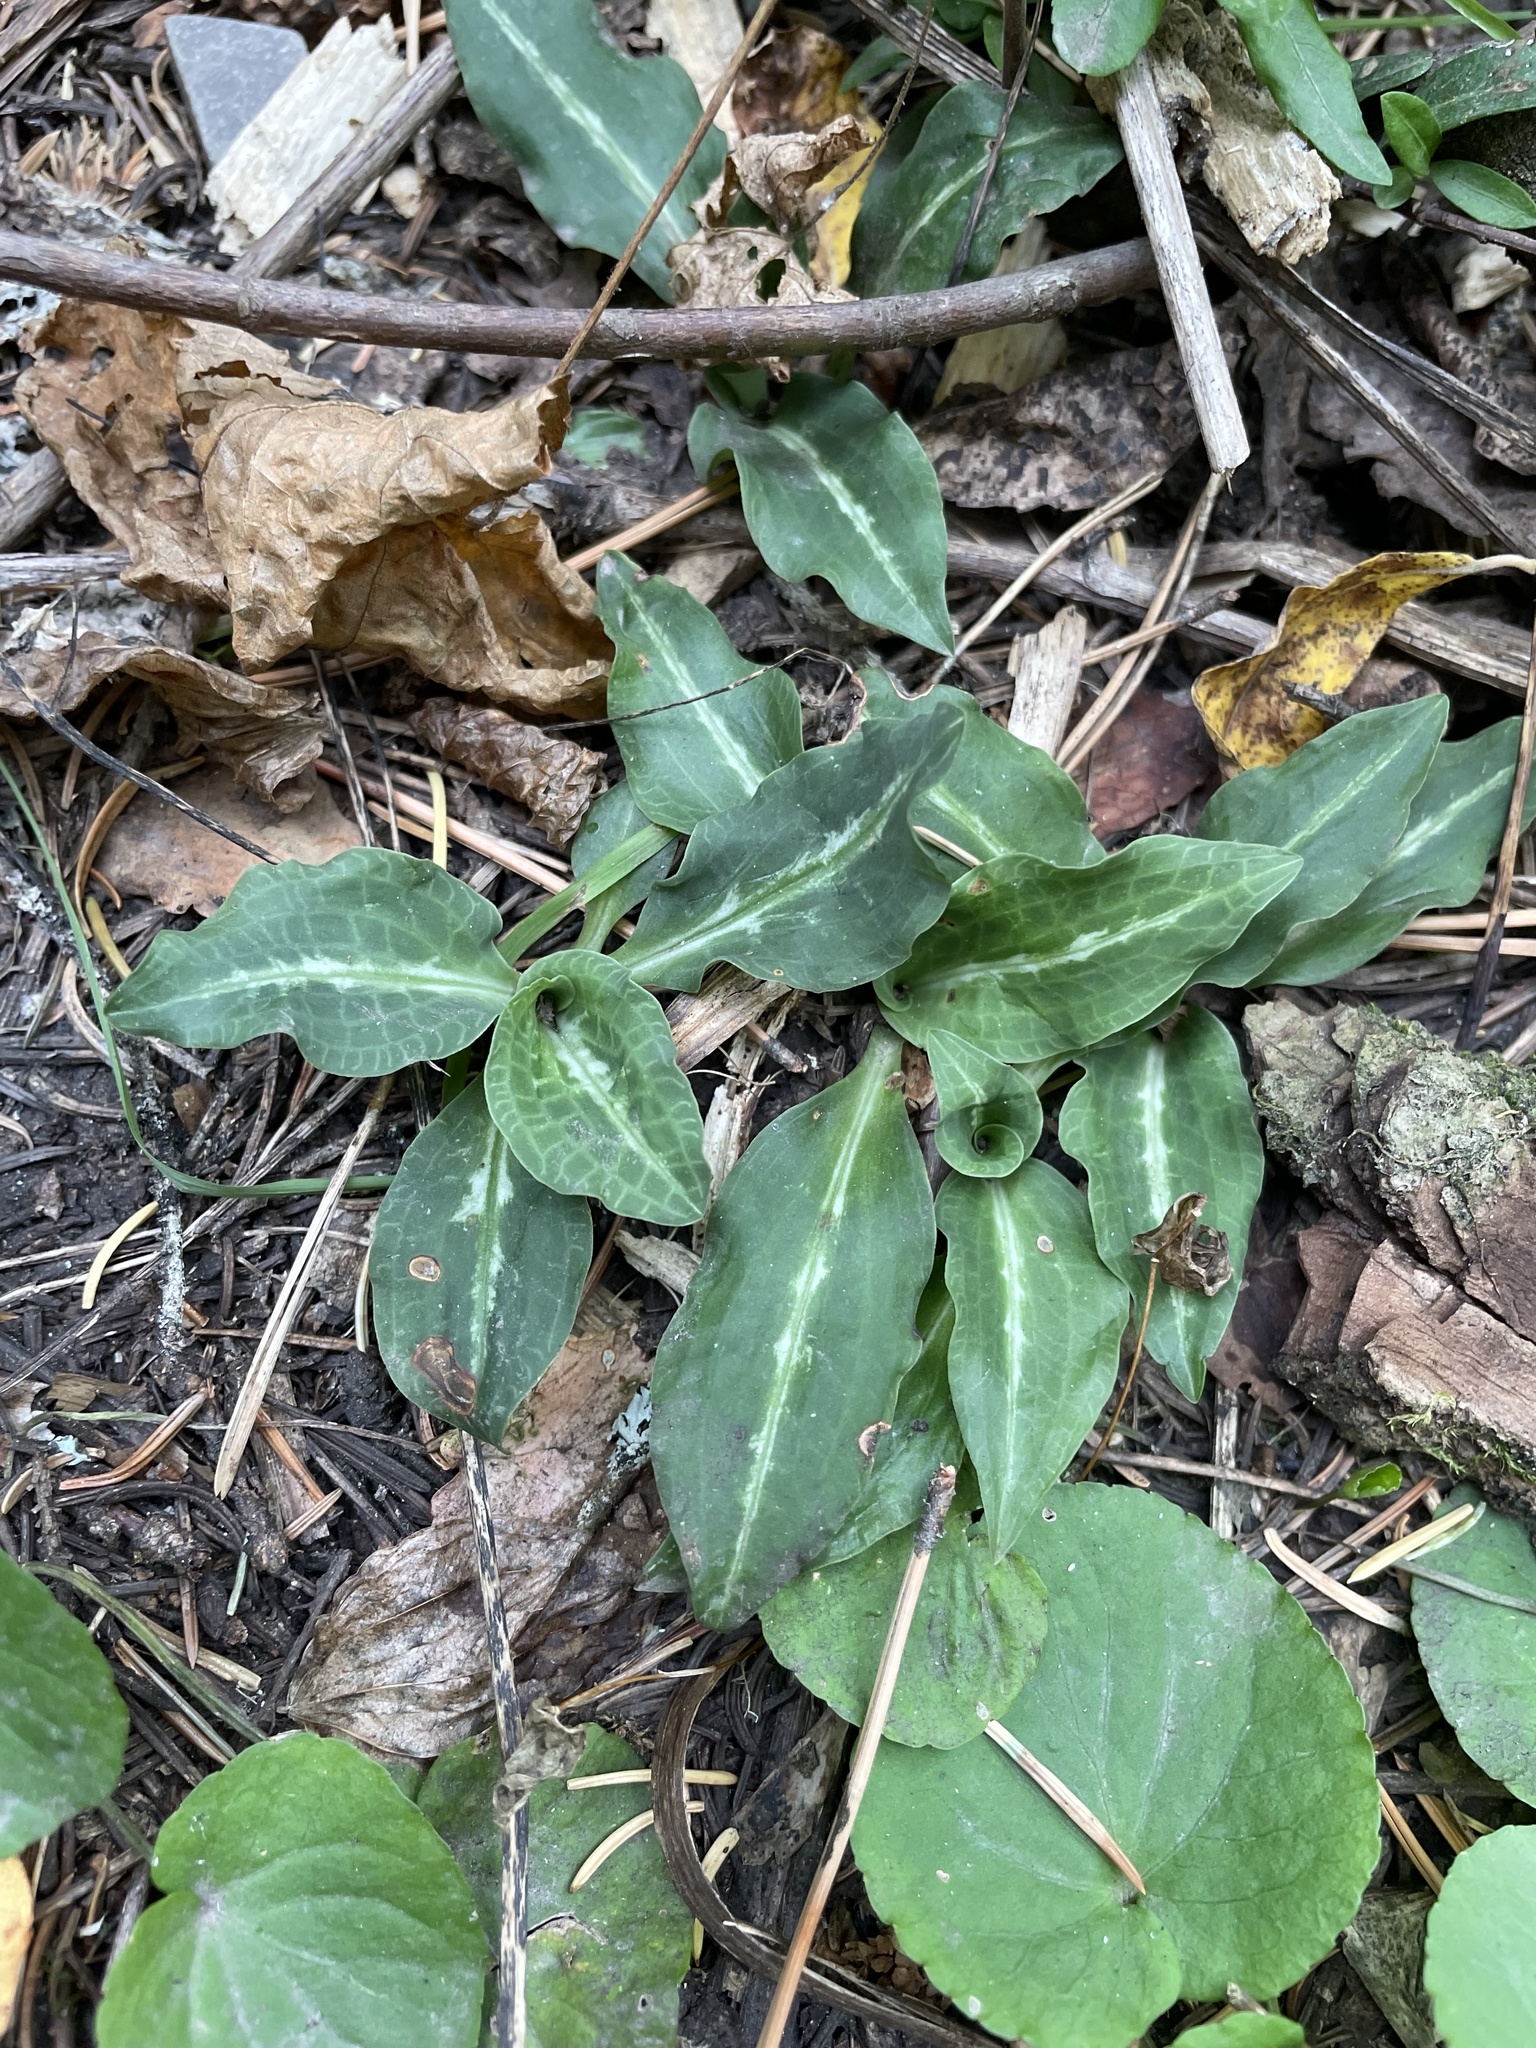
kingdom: Plantae
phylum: Tracheophyta
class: Liliopsida
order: Asparagales
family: Orchidaceae
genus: Goodyera
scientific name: Goodyera oblongifolia
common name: Giant rattlesnake-plantain
